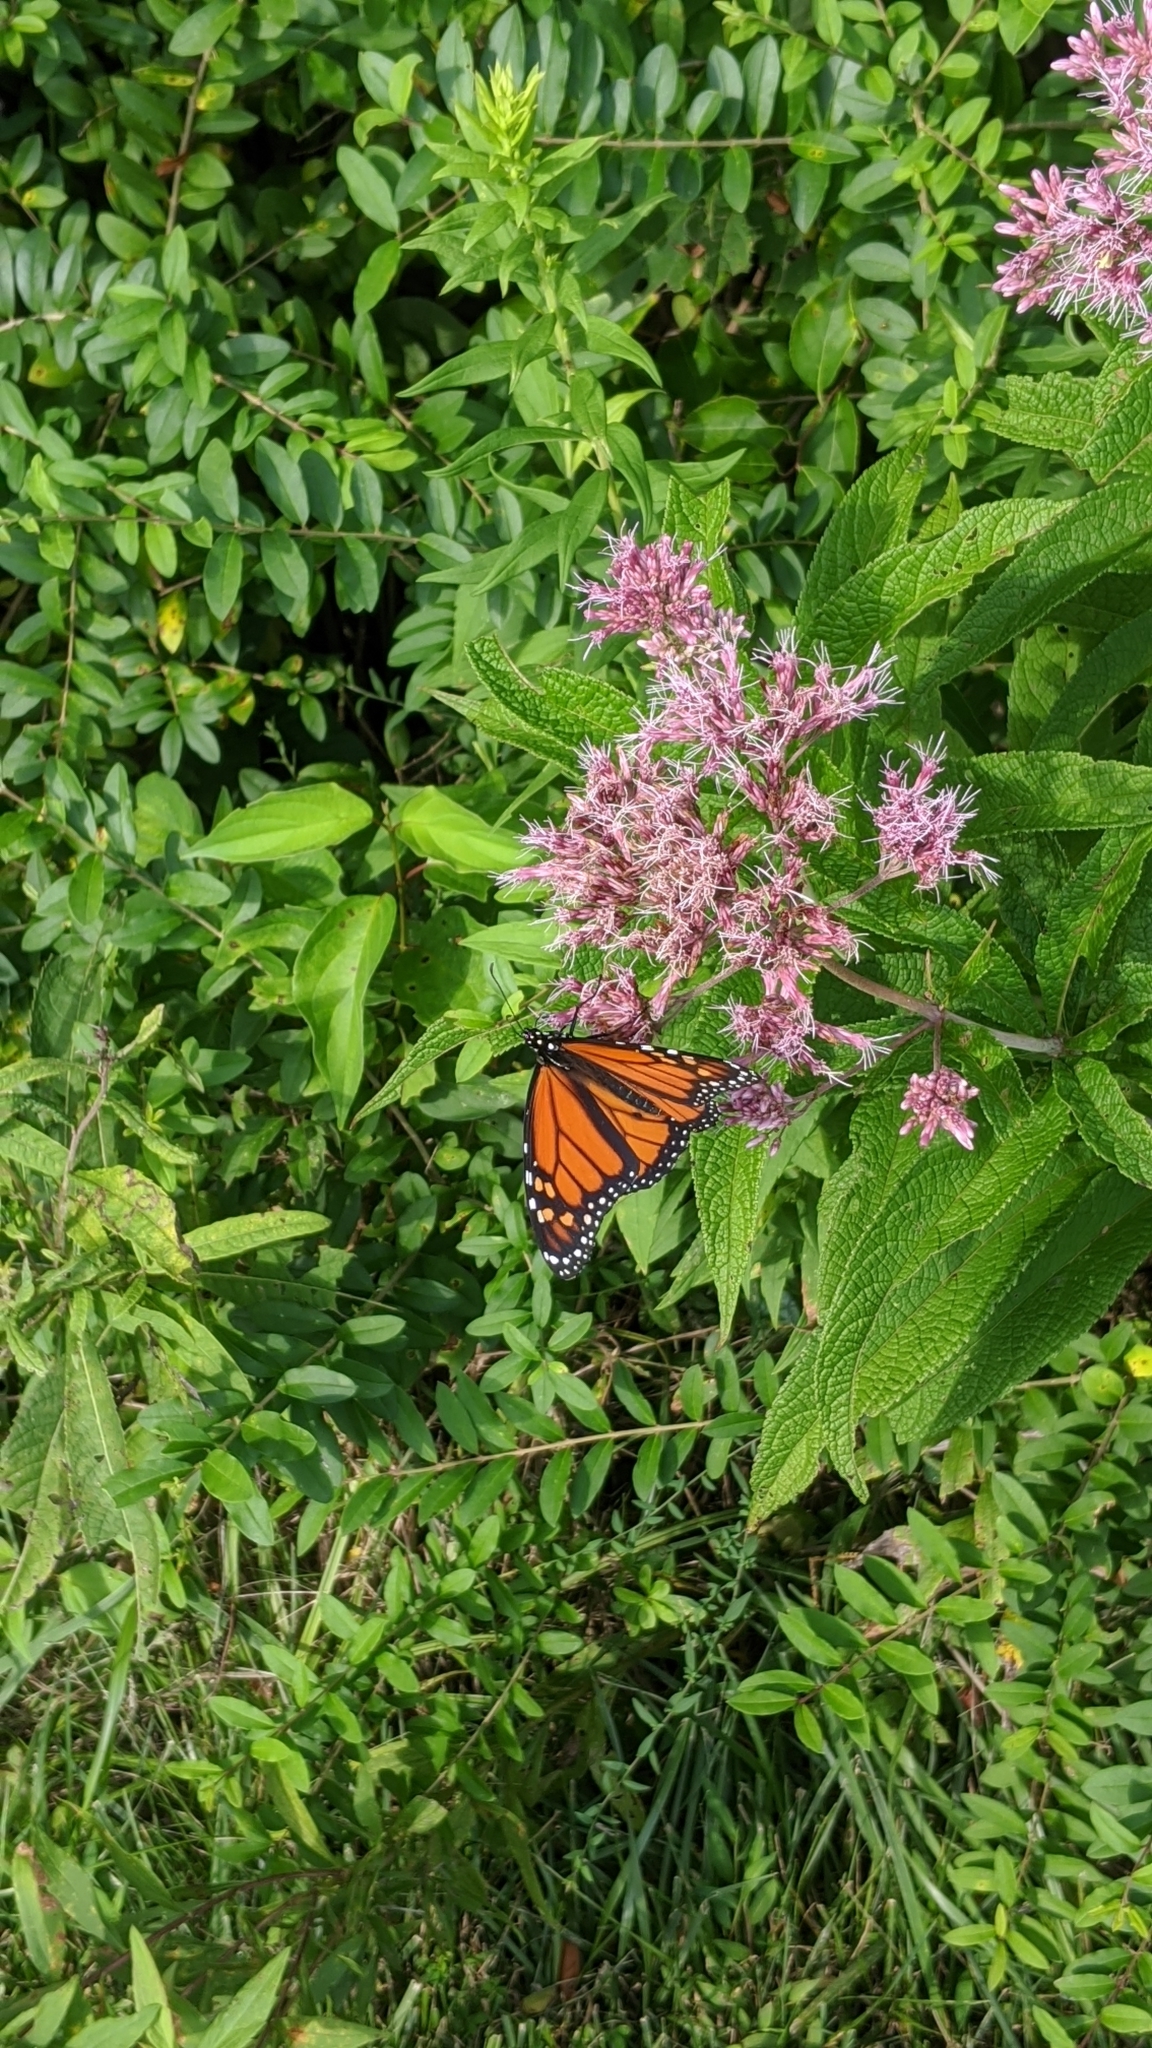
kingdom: Animalia
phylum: Arthropoda
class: Insecta
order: Lepidoptera
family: Nymphalidae
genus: Danaus
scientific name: Danaus plexippus
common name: Monarch
